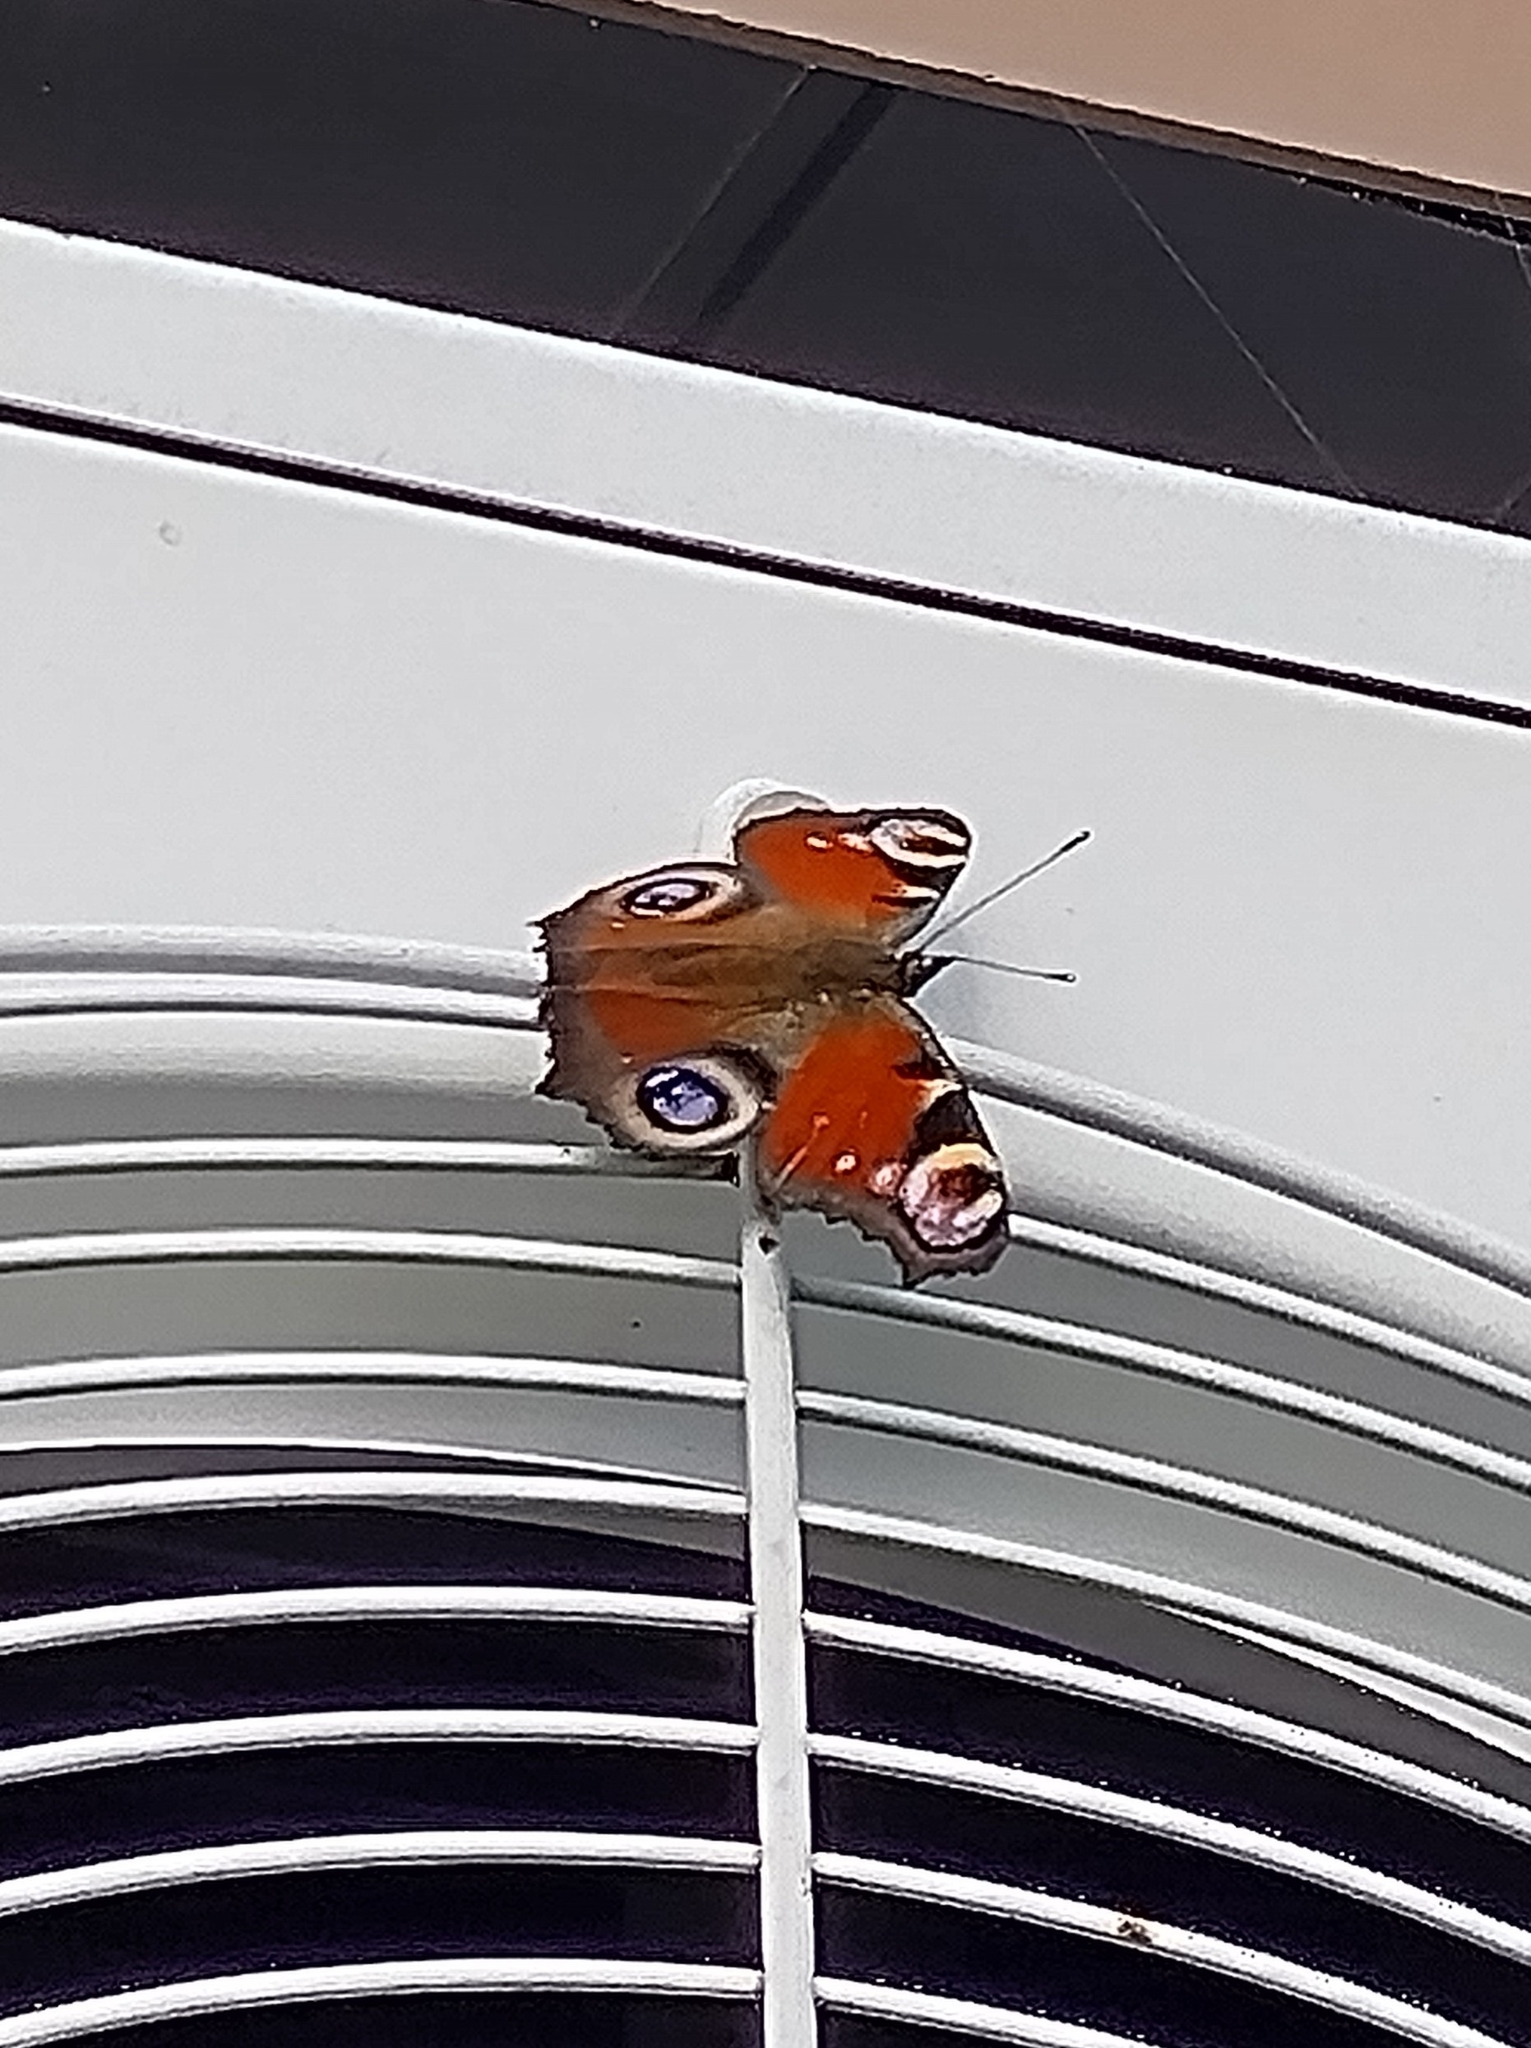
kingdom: Animalia
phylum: Arthropoda
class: Insecta
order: Lepidoptera
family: Nymphalidae
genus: Aglais
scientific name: Aglais io
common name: Peacock
